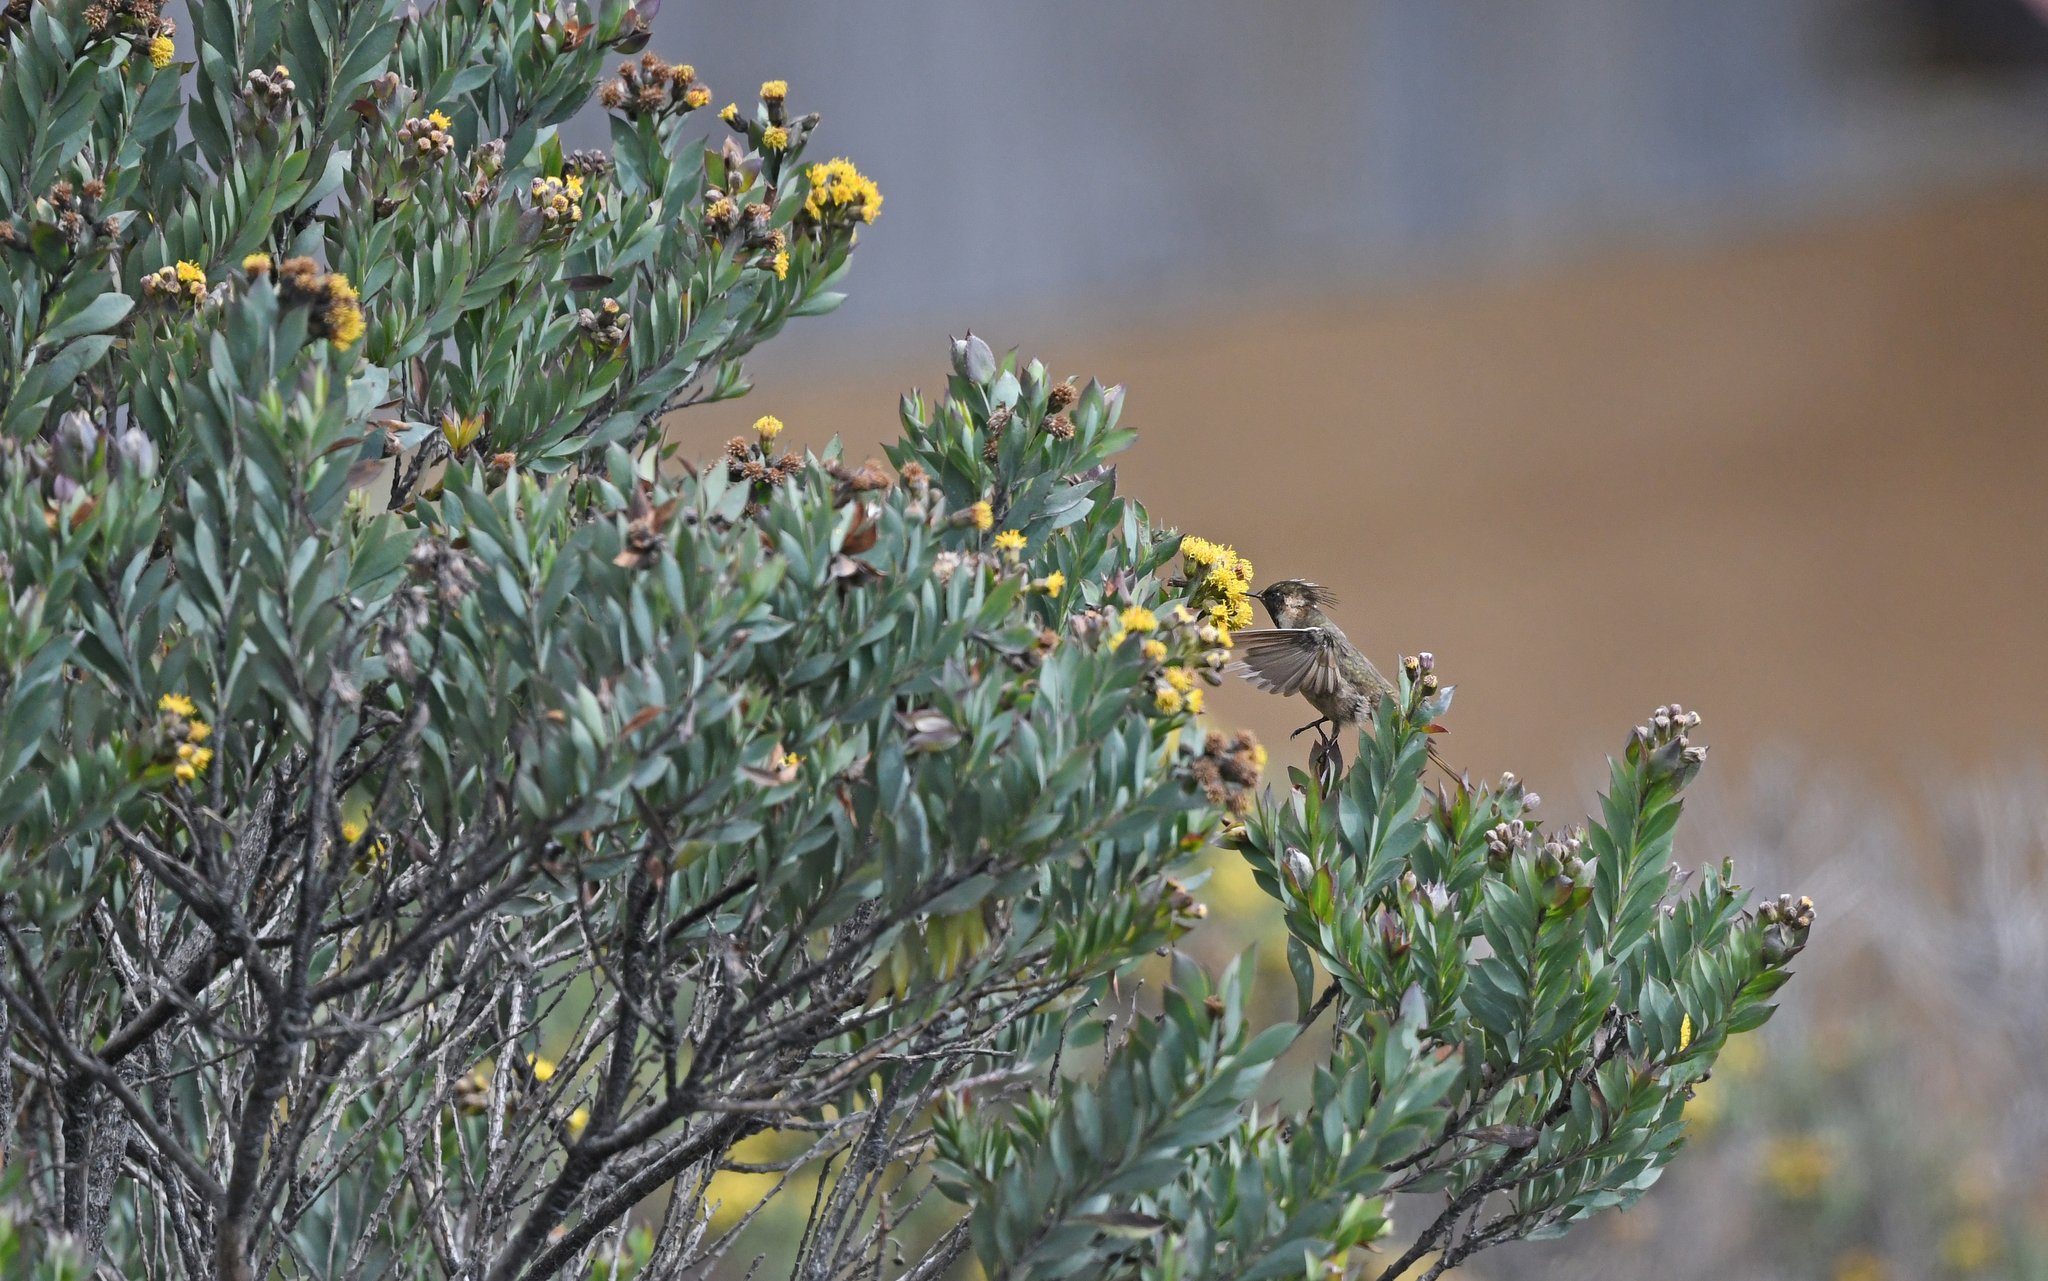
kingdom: Animalia
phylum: Chordata
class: Aves
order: Apodiformes
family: Trochilidae
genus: Oxypogon
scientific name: Oxypogon stuebelii
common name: Buffy helmetcrest
